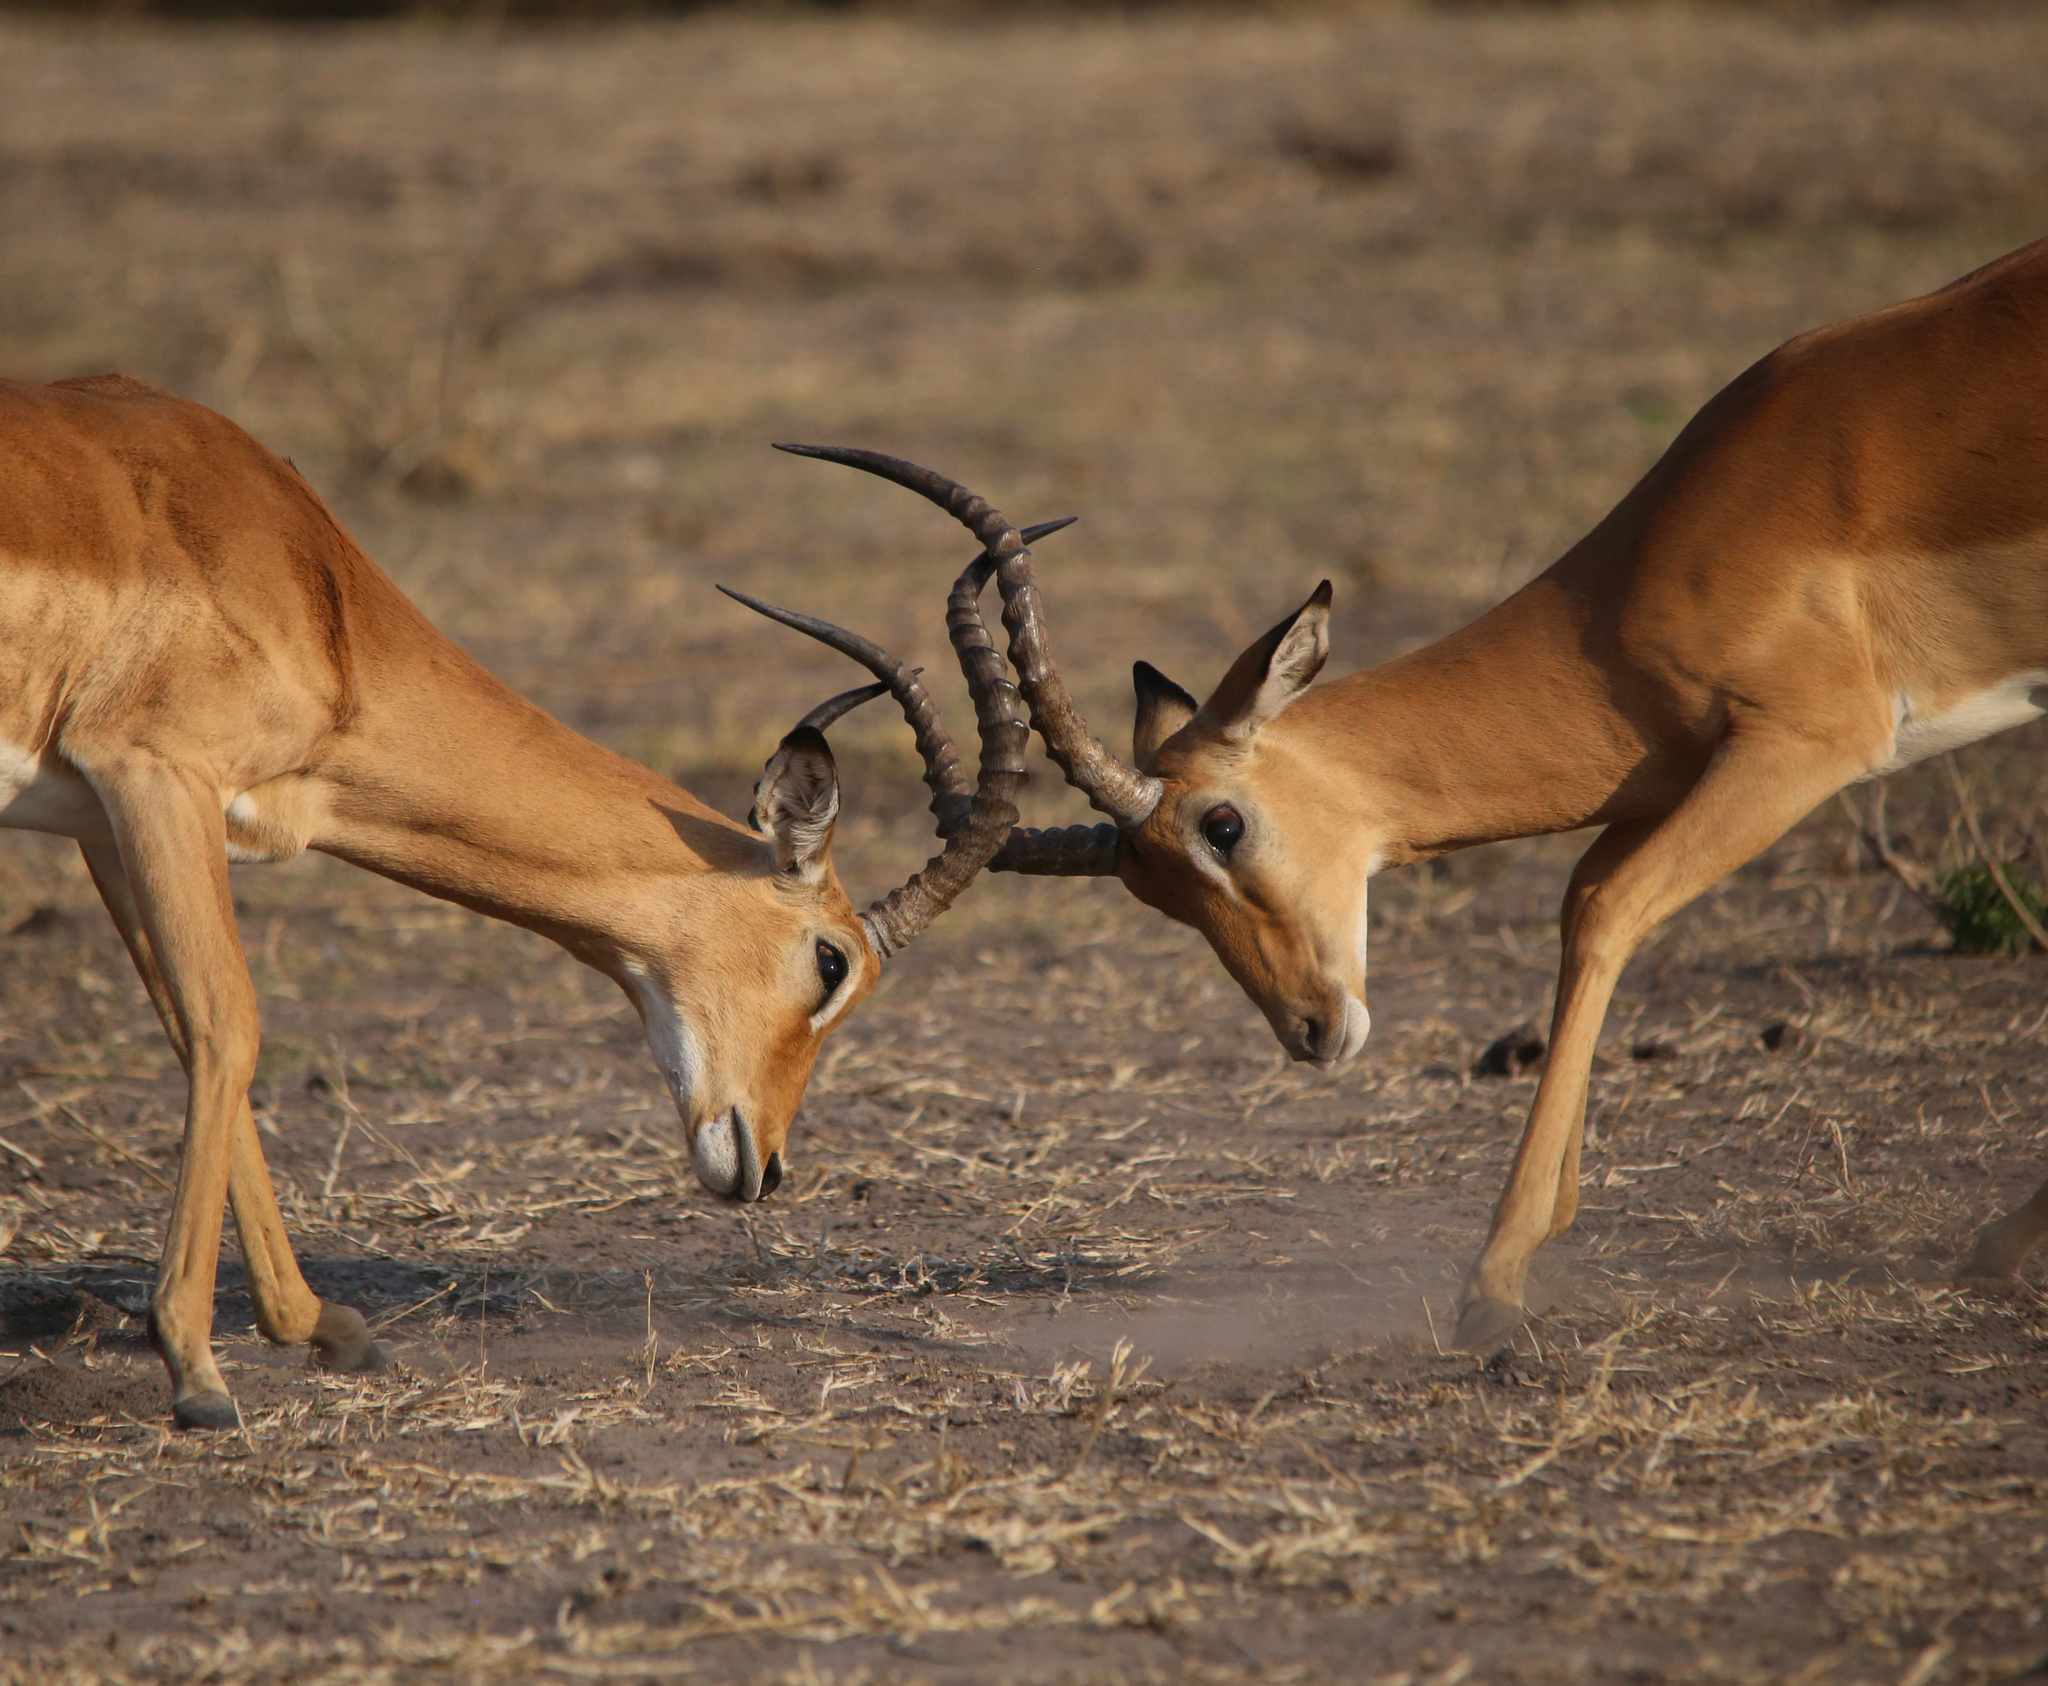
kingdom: Animalia
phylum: Chordata
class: Mammalia
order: Artiodactyla
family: Bovidae
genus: Aepyceros
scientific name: Aepyceros melampus
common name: Impala
